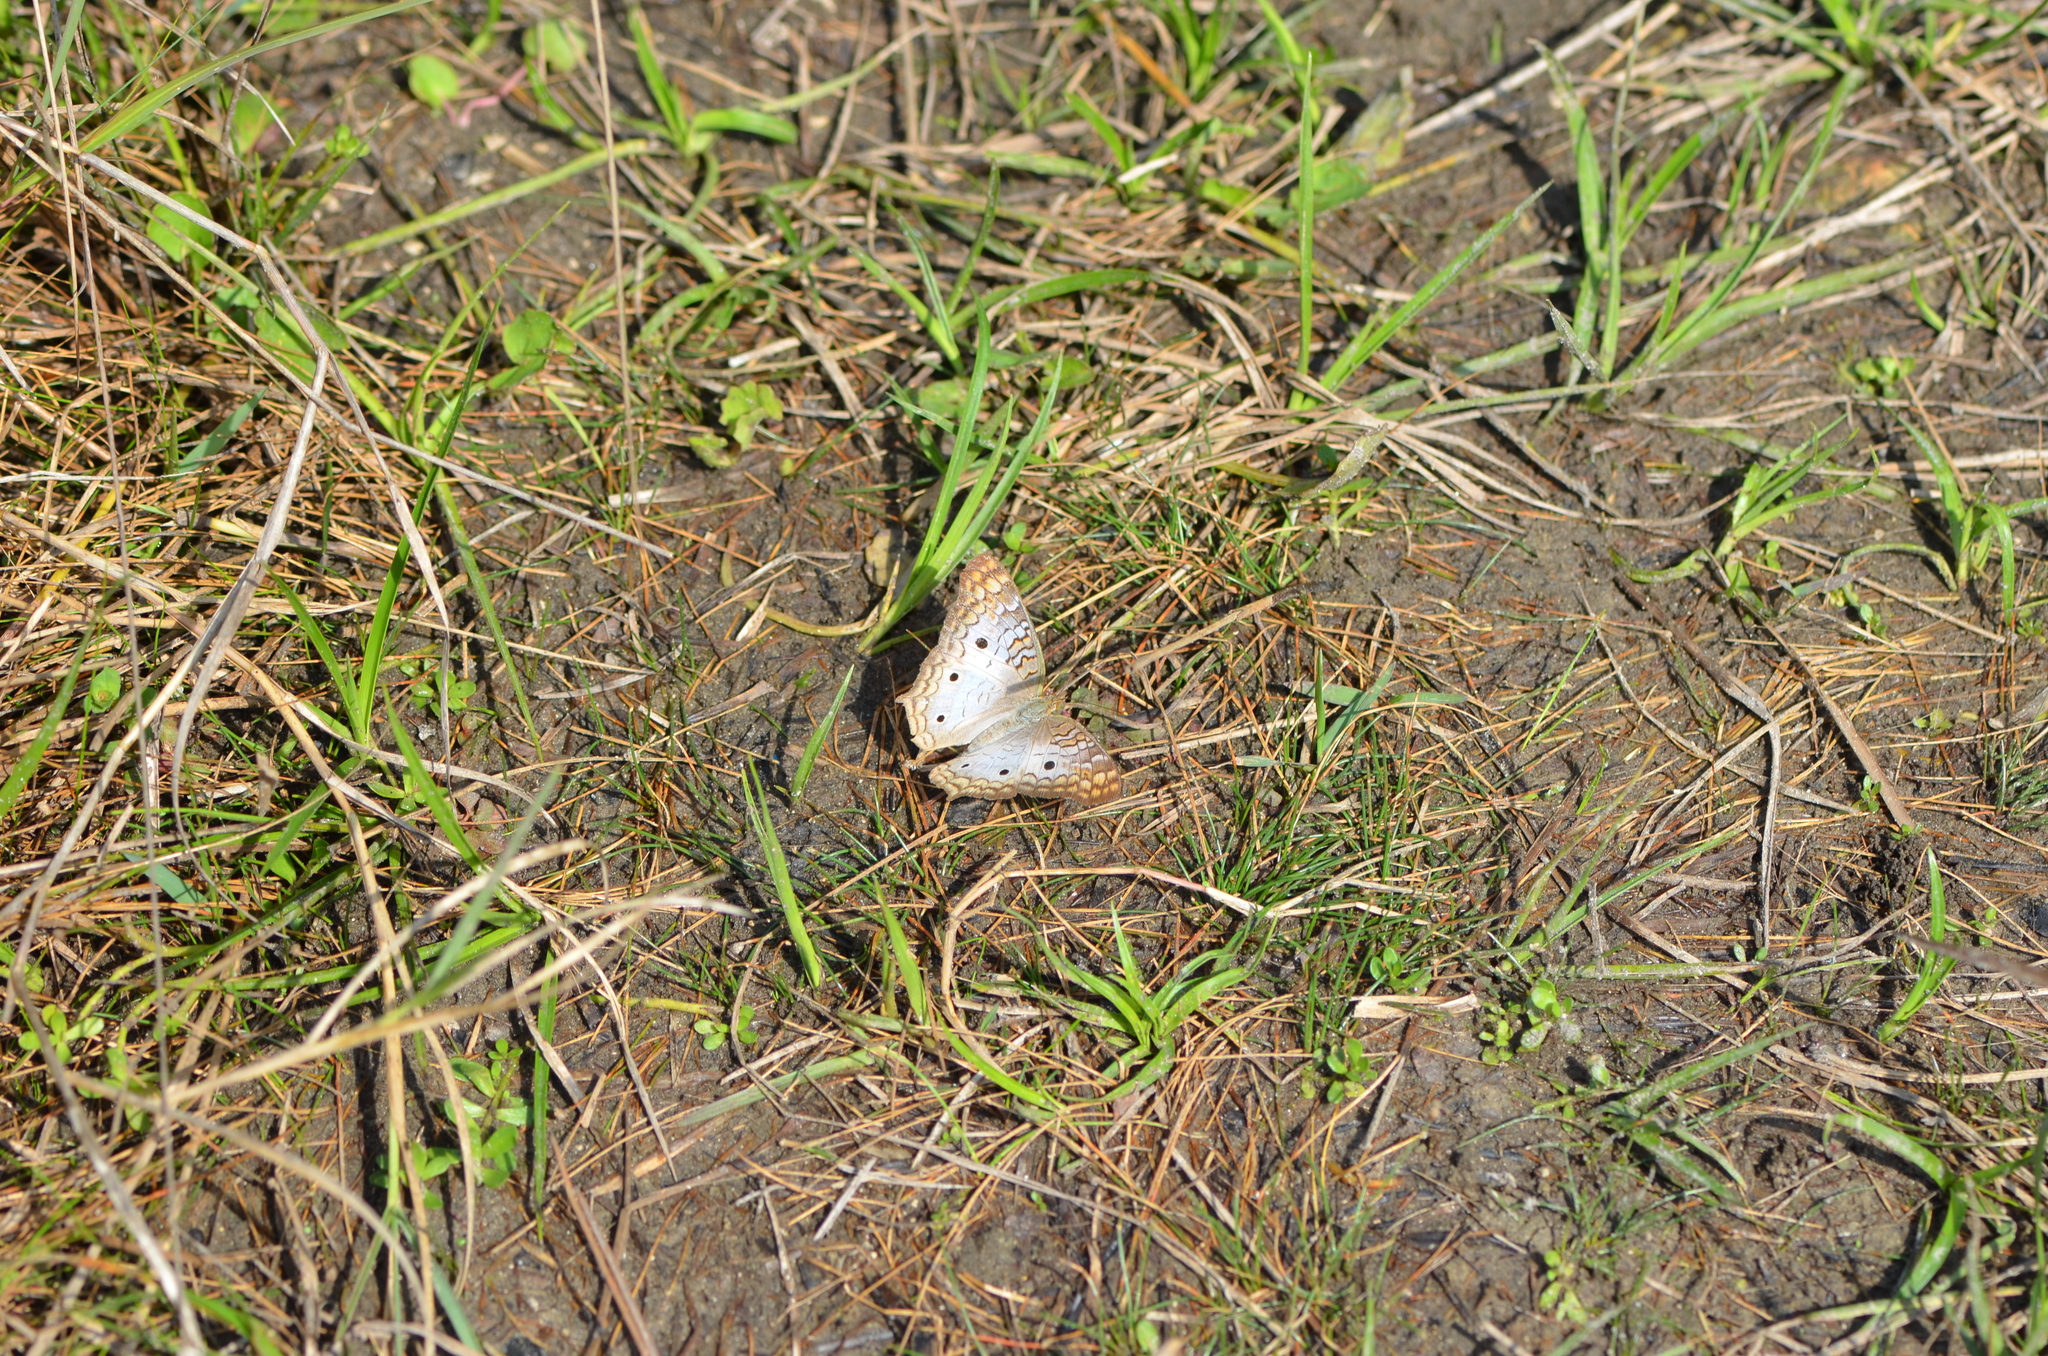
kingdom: Animalia
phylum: Arthropoda
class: Insecta
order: Lepidoptera
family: Nymphalidae
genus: Anartia
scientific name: Anartia jatrophae
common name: White peacock
